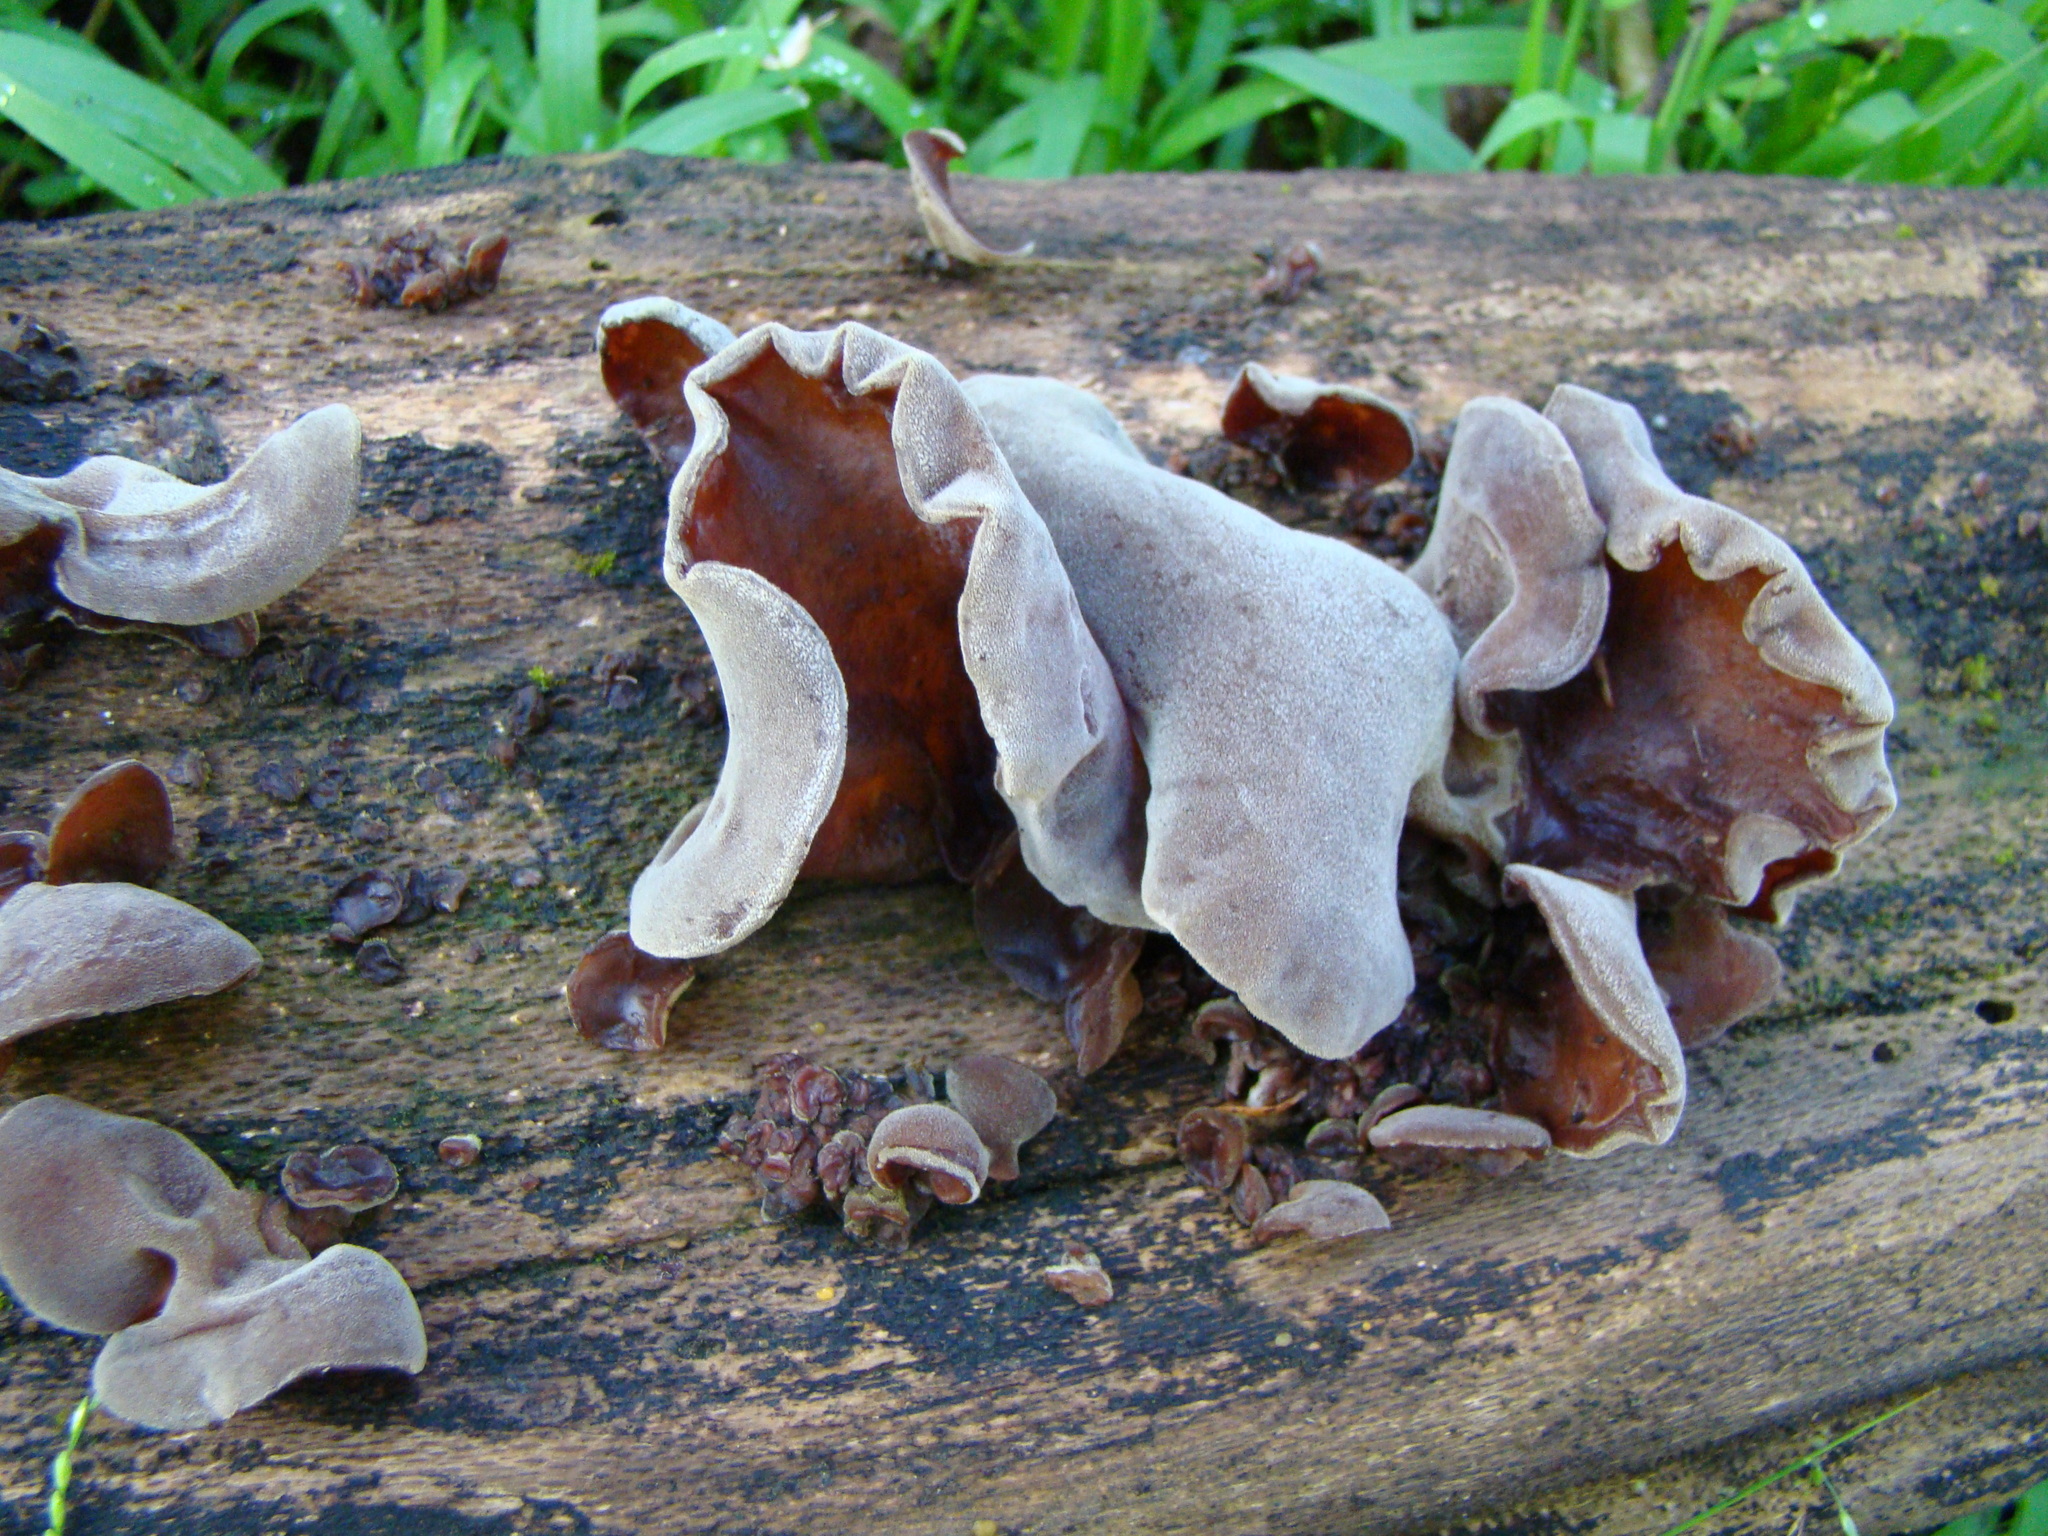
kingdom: Fungi
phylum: Basidiomycota
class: Agaricomycetes
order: Auriculariales
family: Auriculariaceae
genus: Auricularia
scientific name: Auricularia cornea
